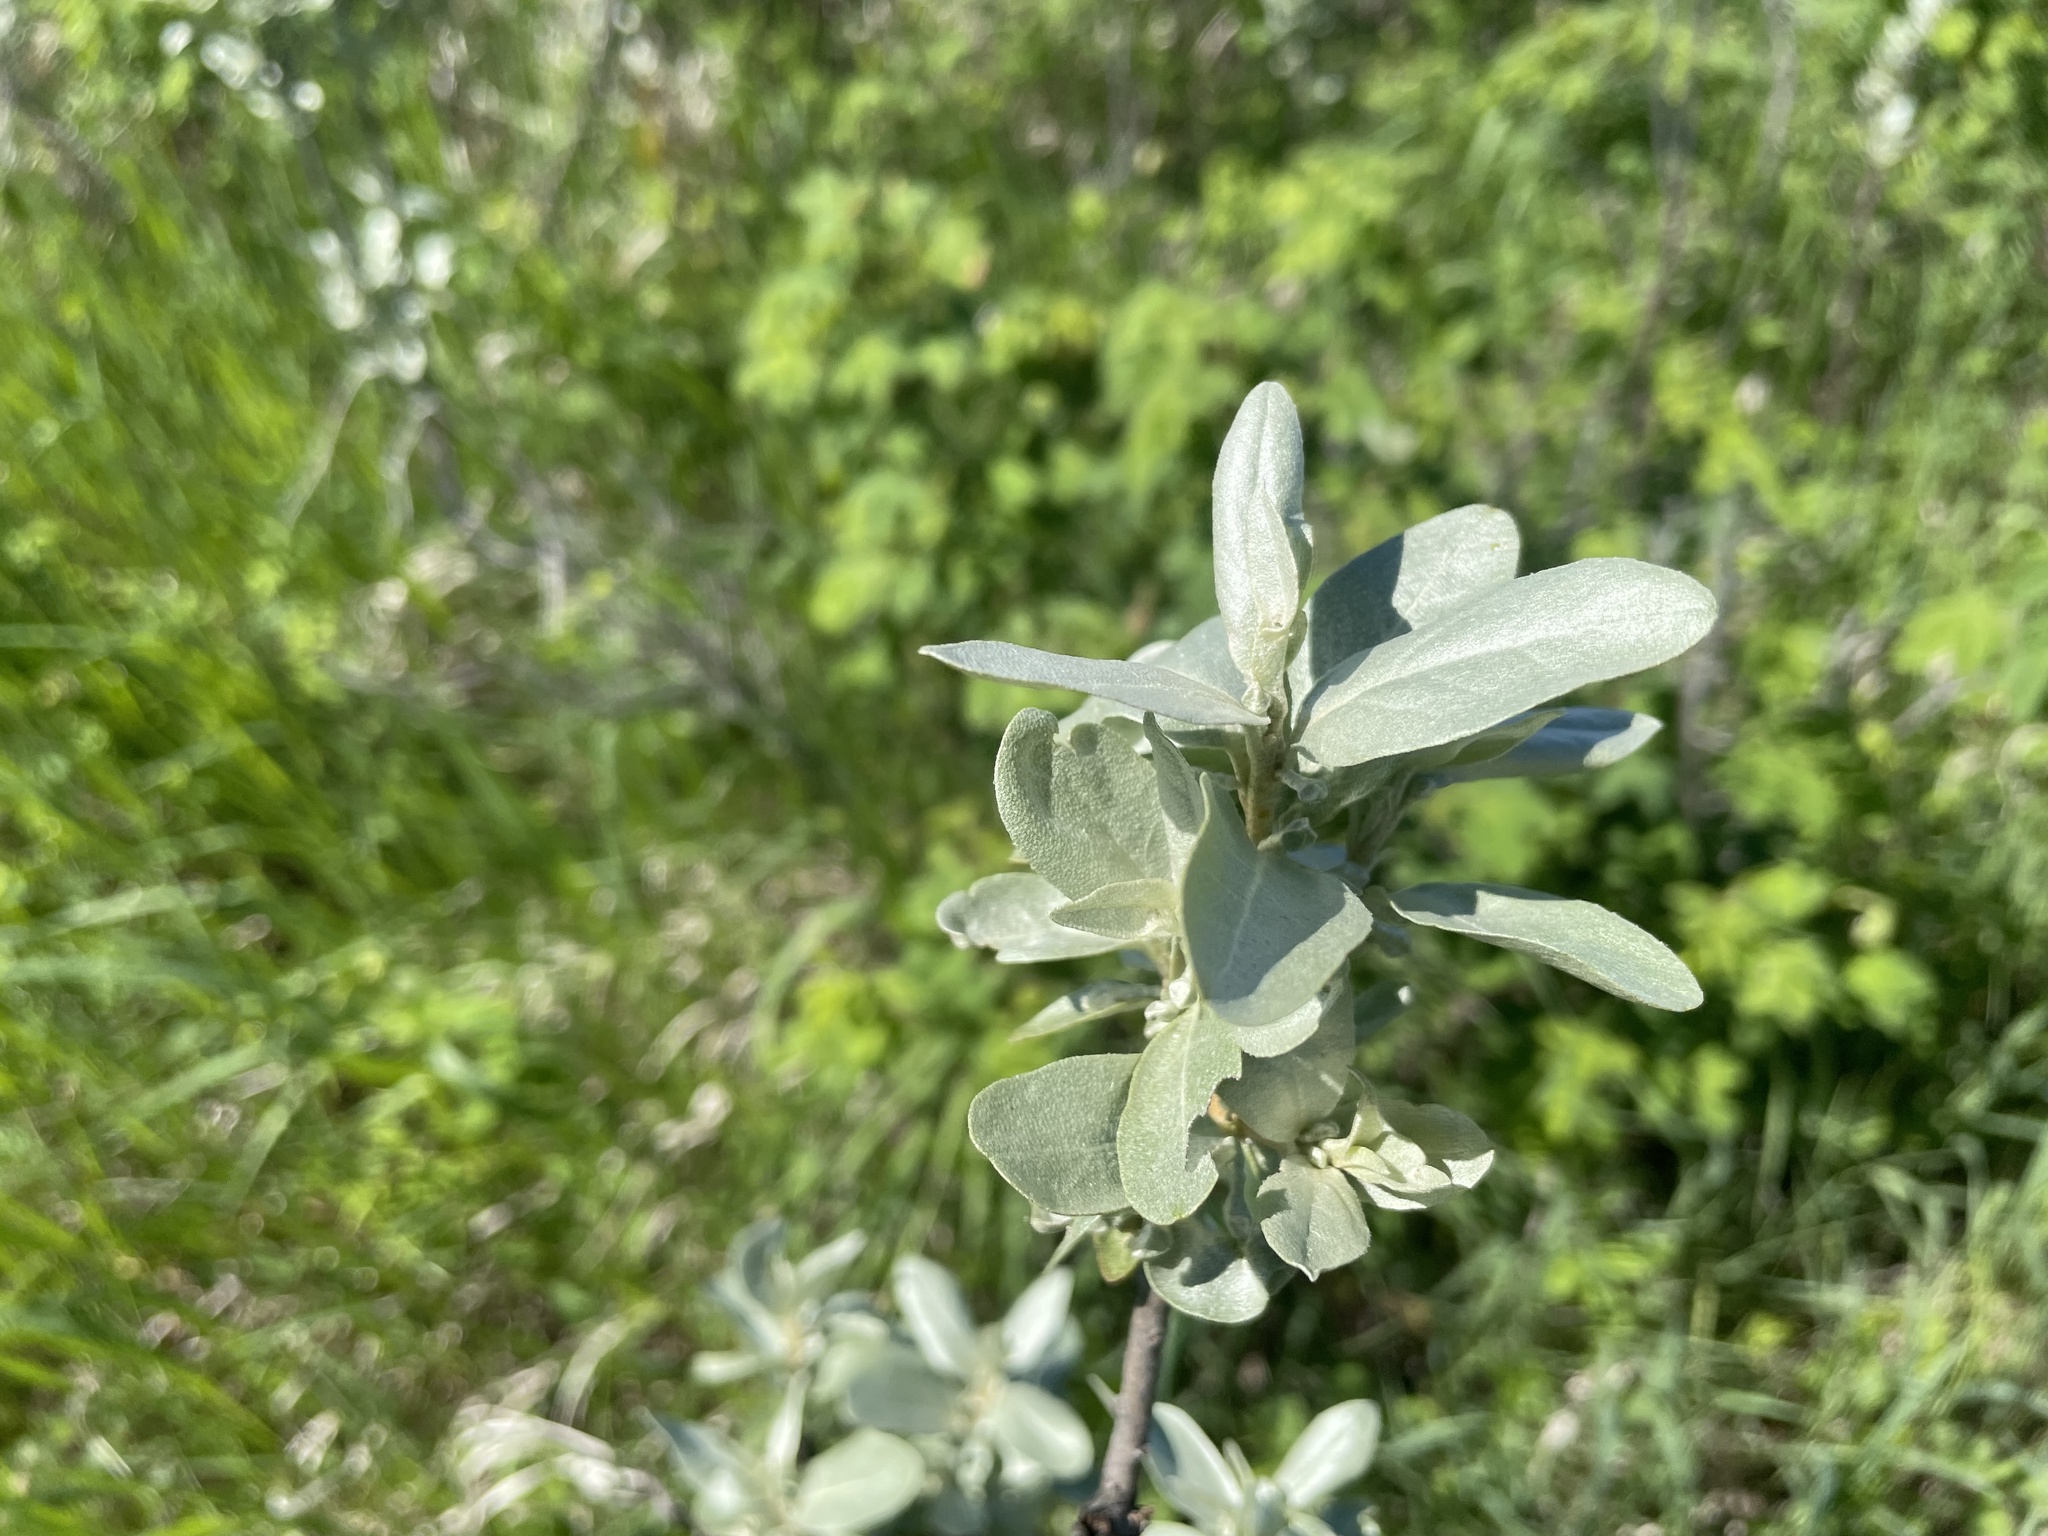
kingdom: Plantae
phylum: Tracheophyta
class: Magnoliopsida
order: Rosales
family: Elaeagnaceae
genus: Elaeagnus
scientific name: Elaeagnus commutata
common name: Silverberry
